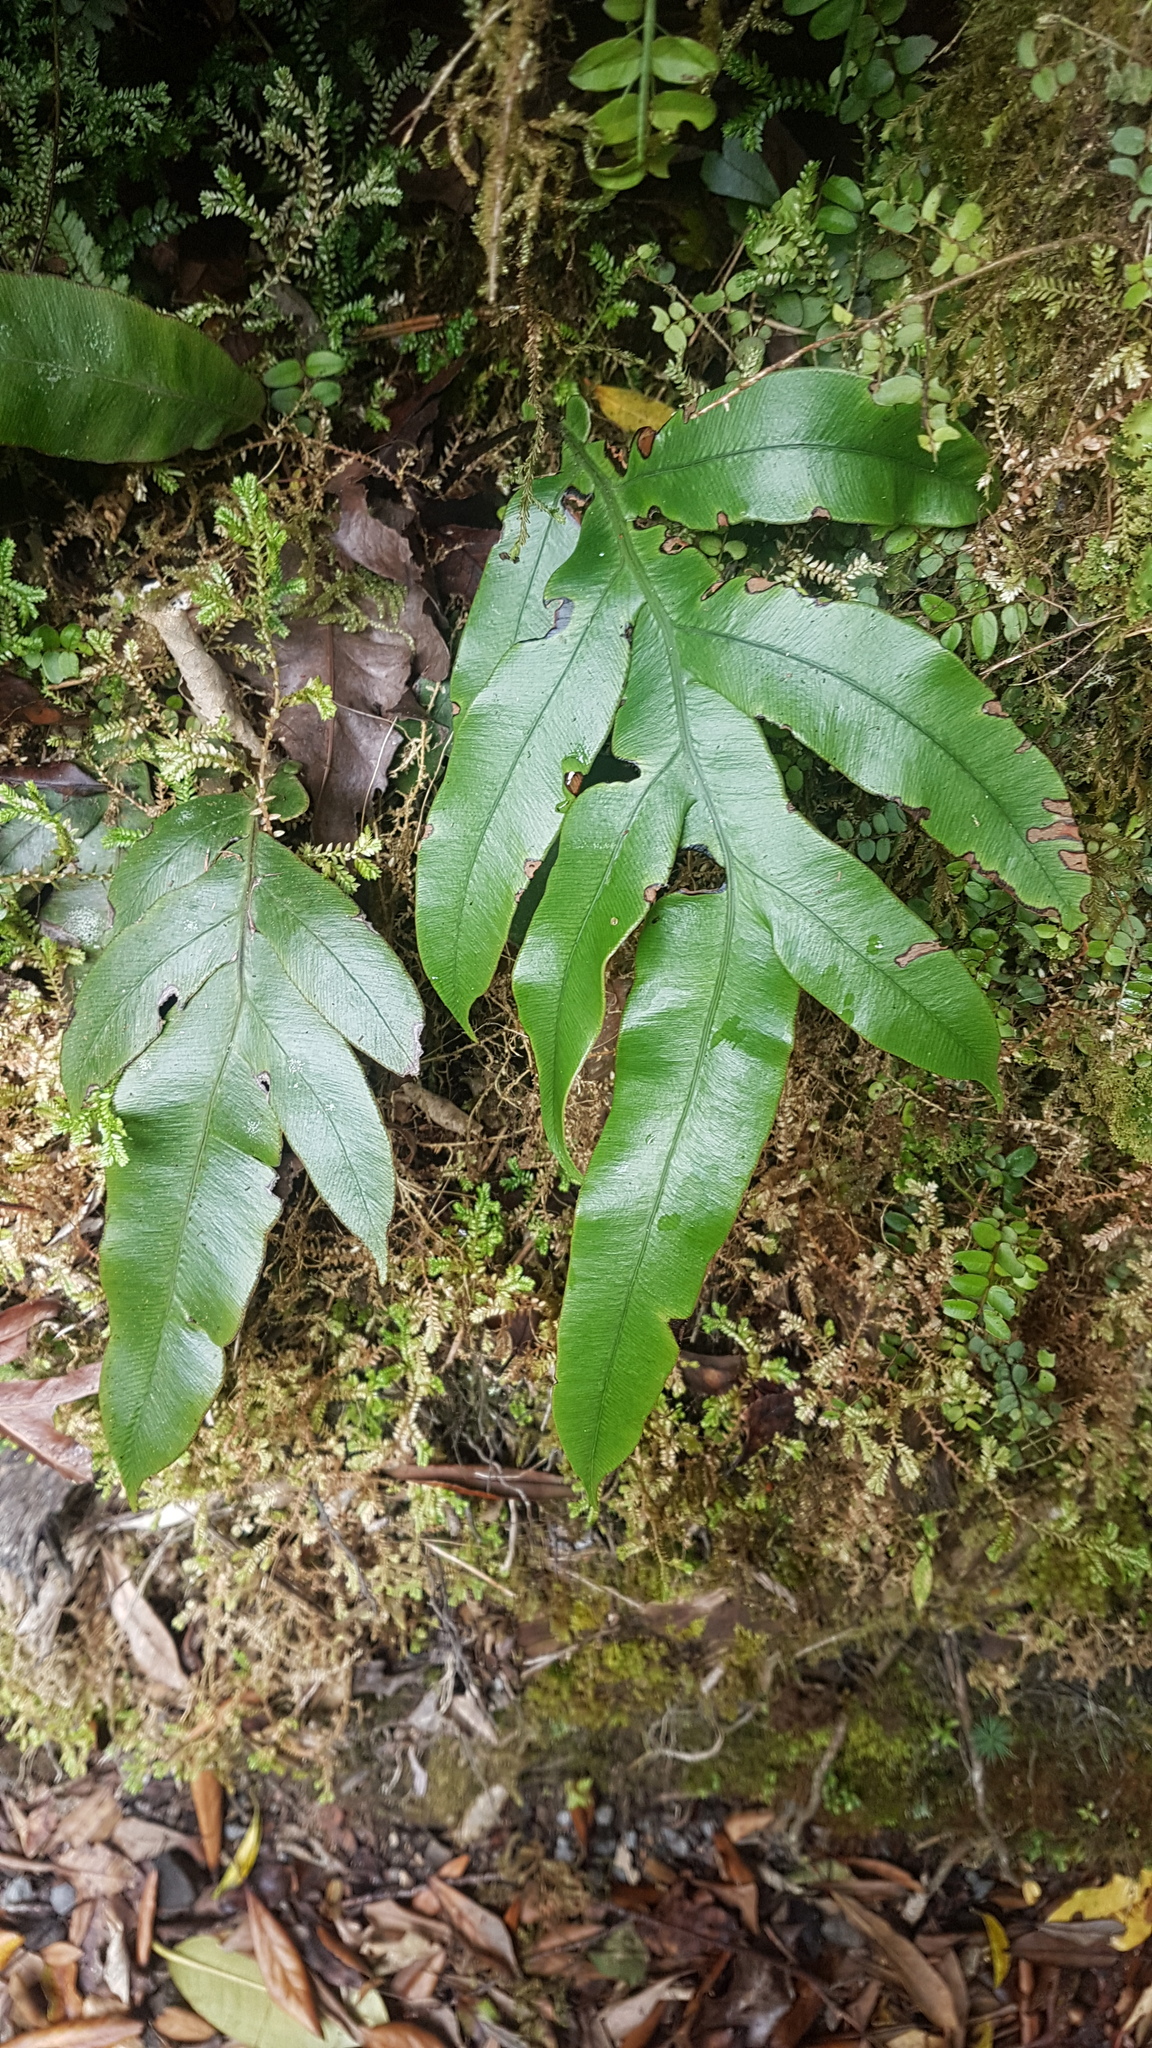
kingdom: Plantae
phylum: Tracheophyta
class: Polypodiopsida
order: Polypodiales
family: Blechnaceae
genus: Austroblechnum
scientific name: Austroblechnum colensoi
